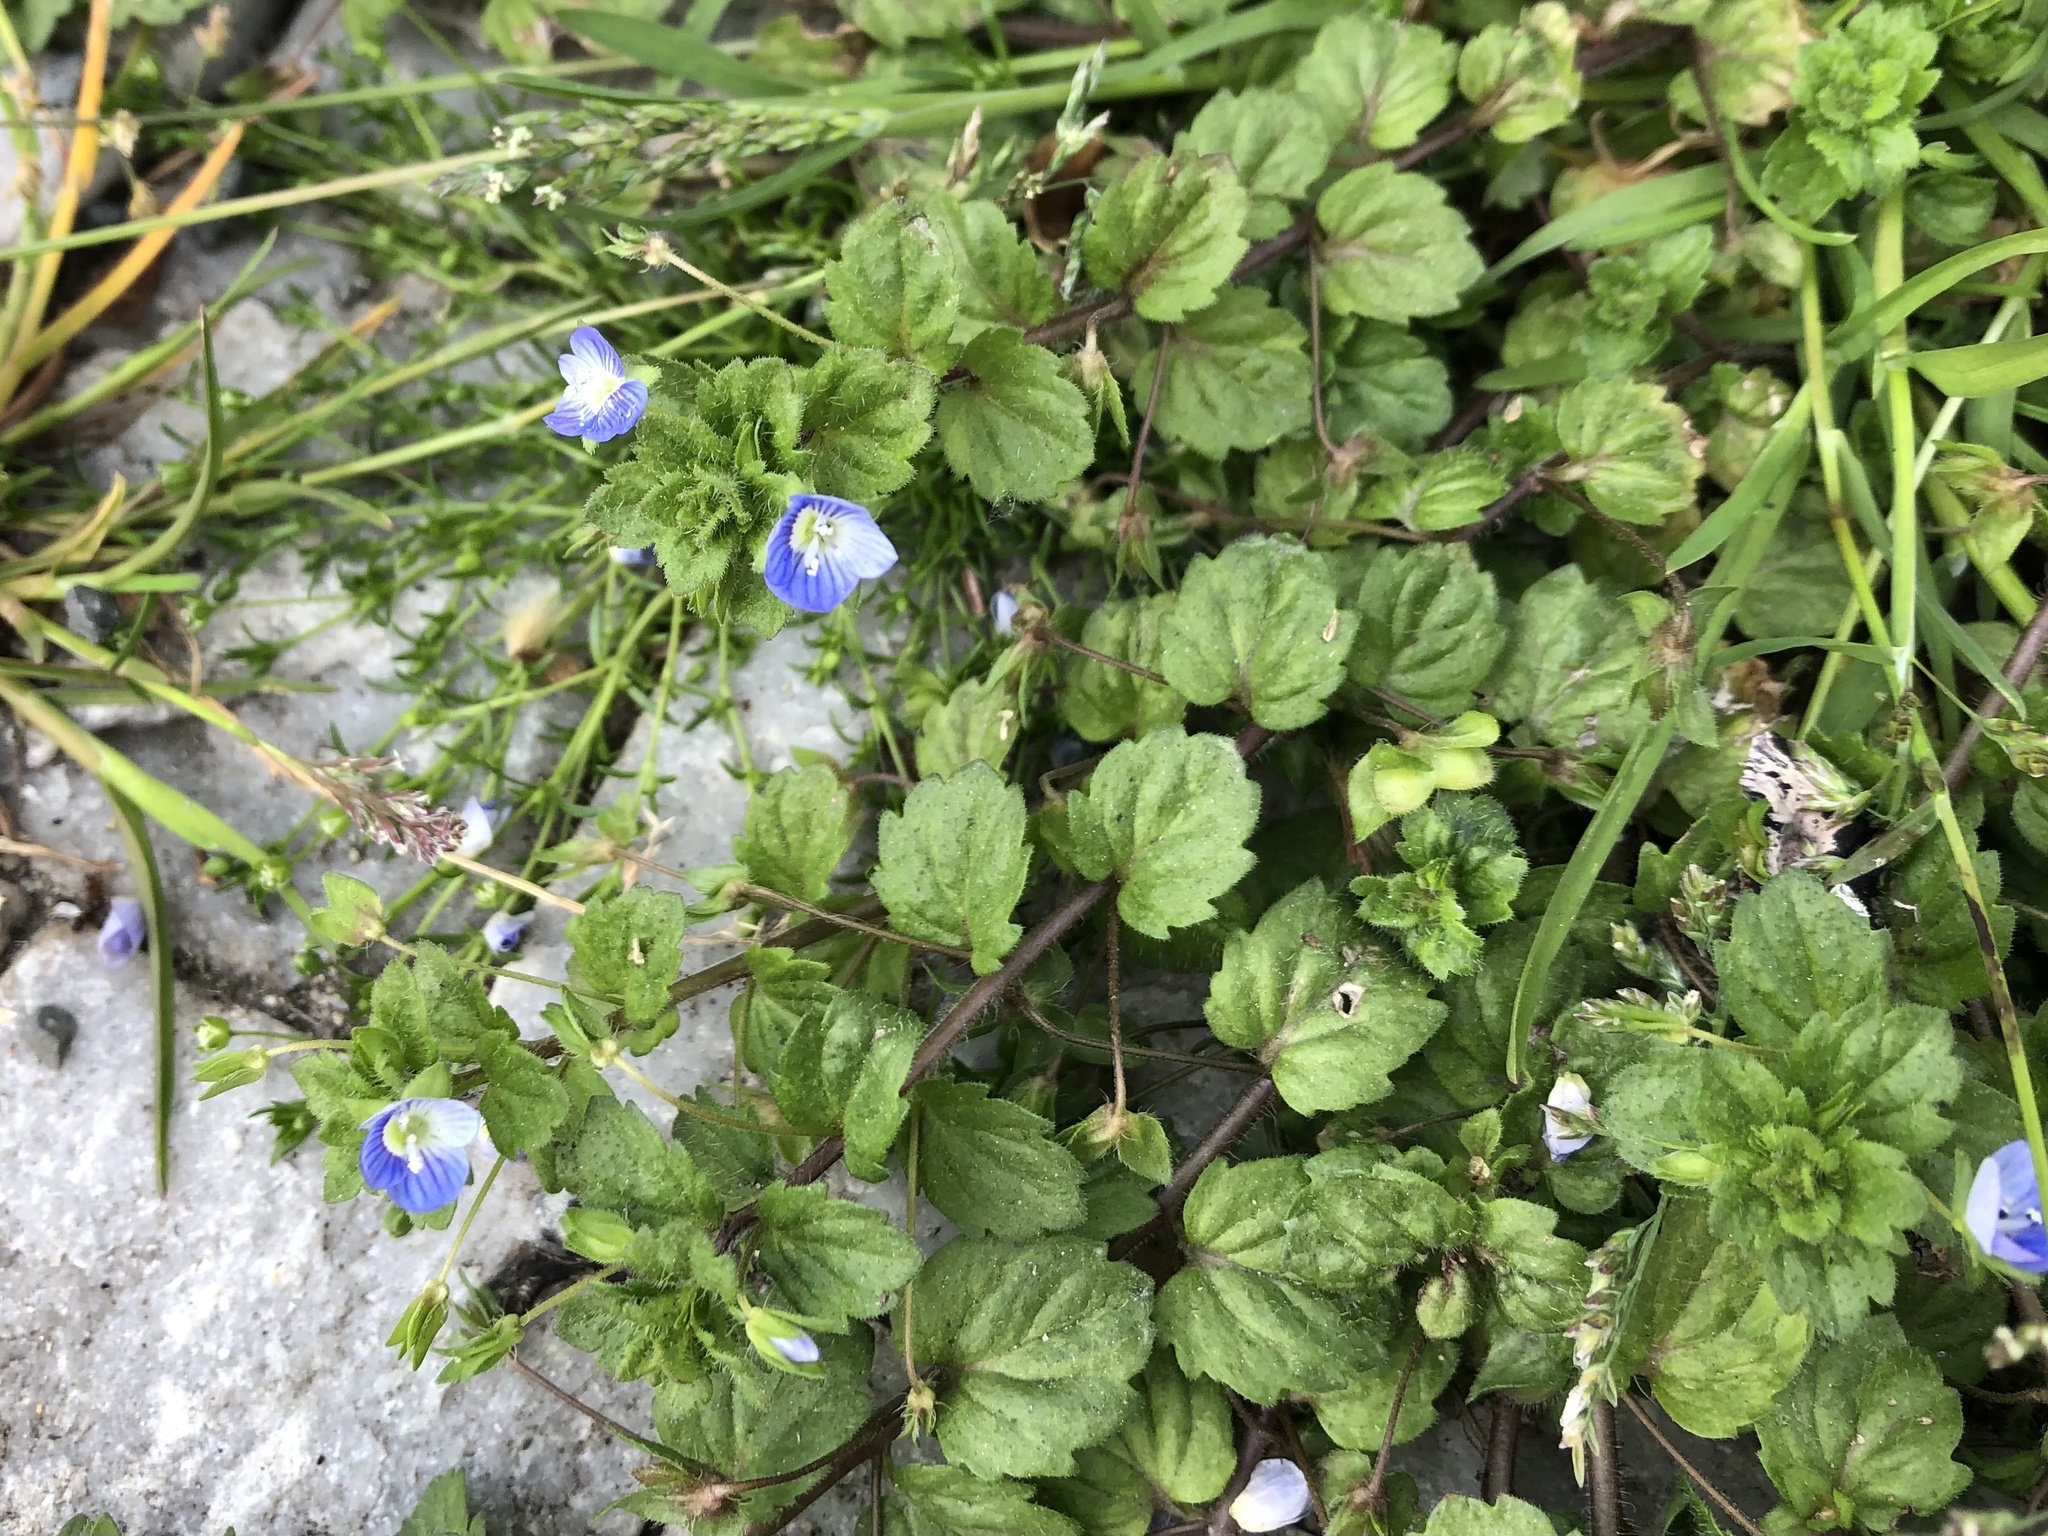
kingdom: Plantae
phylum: Tracheophyta
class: Magnoliopsida
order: Lamiales
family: Plantaginaceae
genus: Veronica
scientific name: Veronica persica
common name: Common field-speedwell
